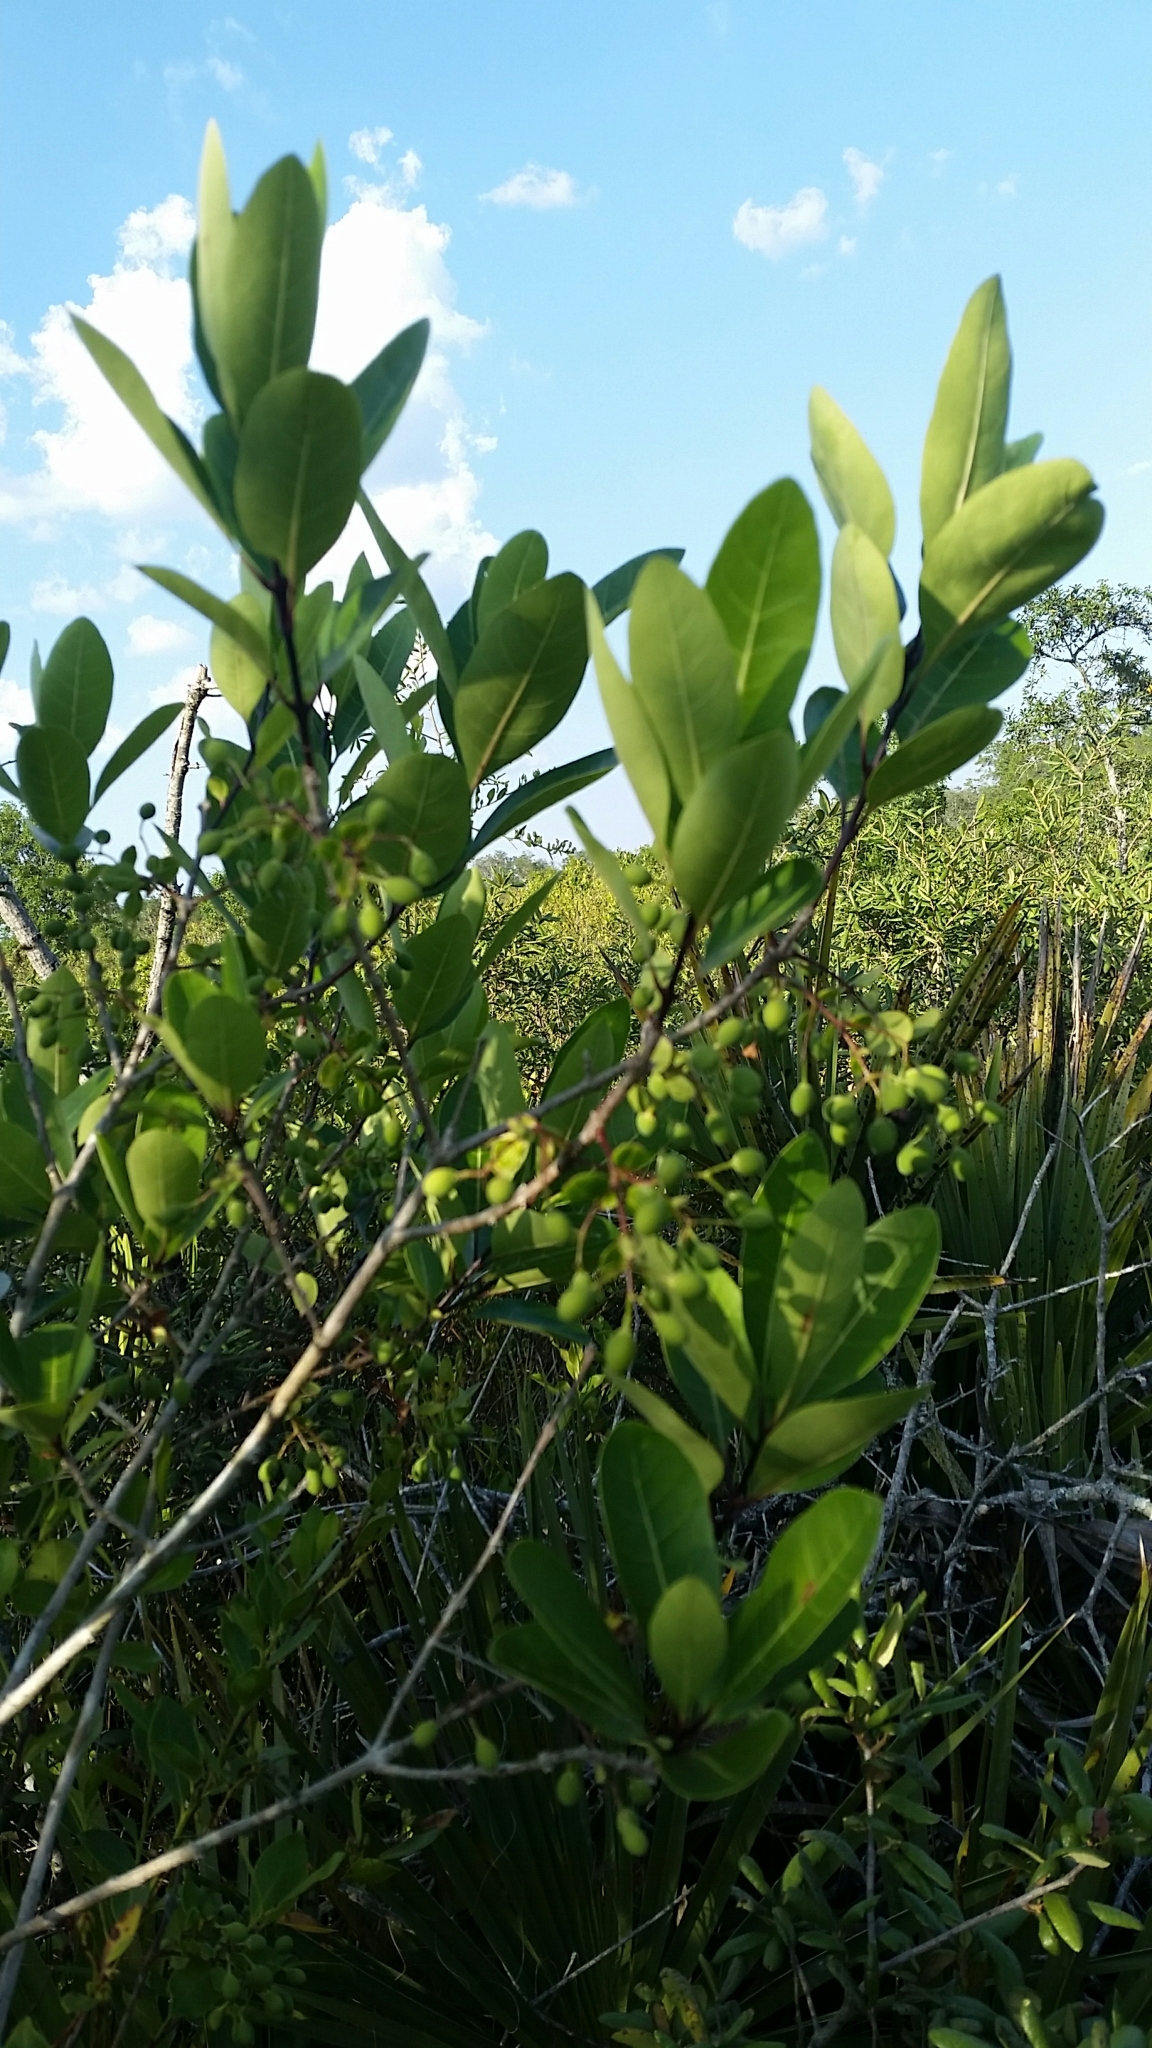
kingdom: Plantae
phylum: Tracheophyta
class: Magnoliopsida
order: Lamiales
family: Oleaceae
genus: Chionanthus
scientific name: Chionanthus pygmaeus
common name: Pygmy fringetree
